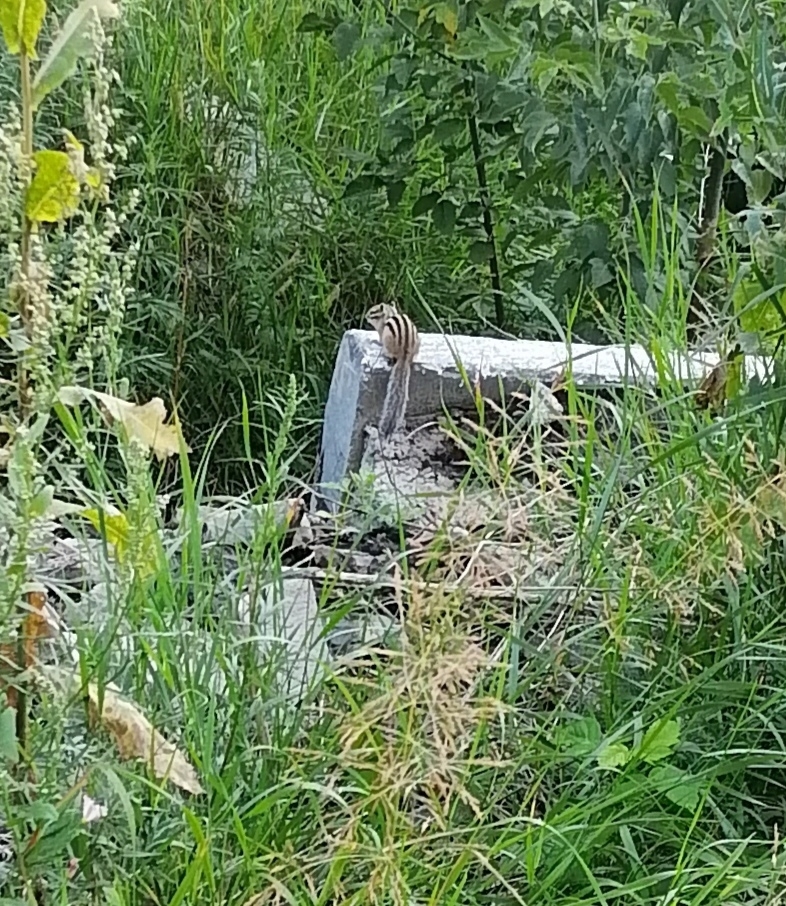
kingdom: Animalia
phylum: Chordata
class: Mammalia
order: Rodentia
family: Sciuridae
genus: Tamias
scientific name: Tamias sibiricus
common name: Siberian chipmunk
